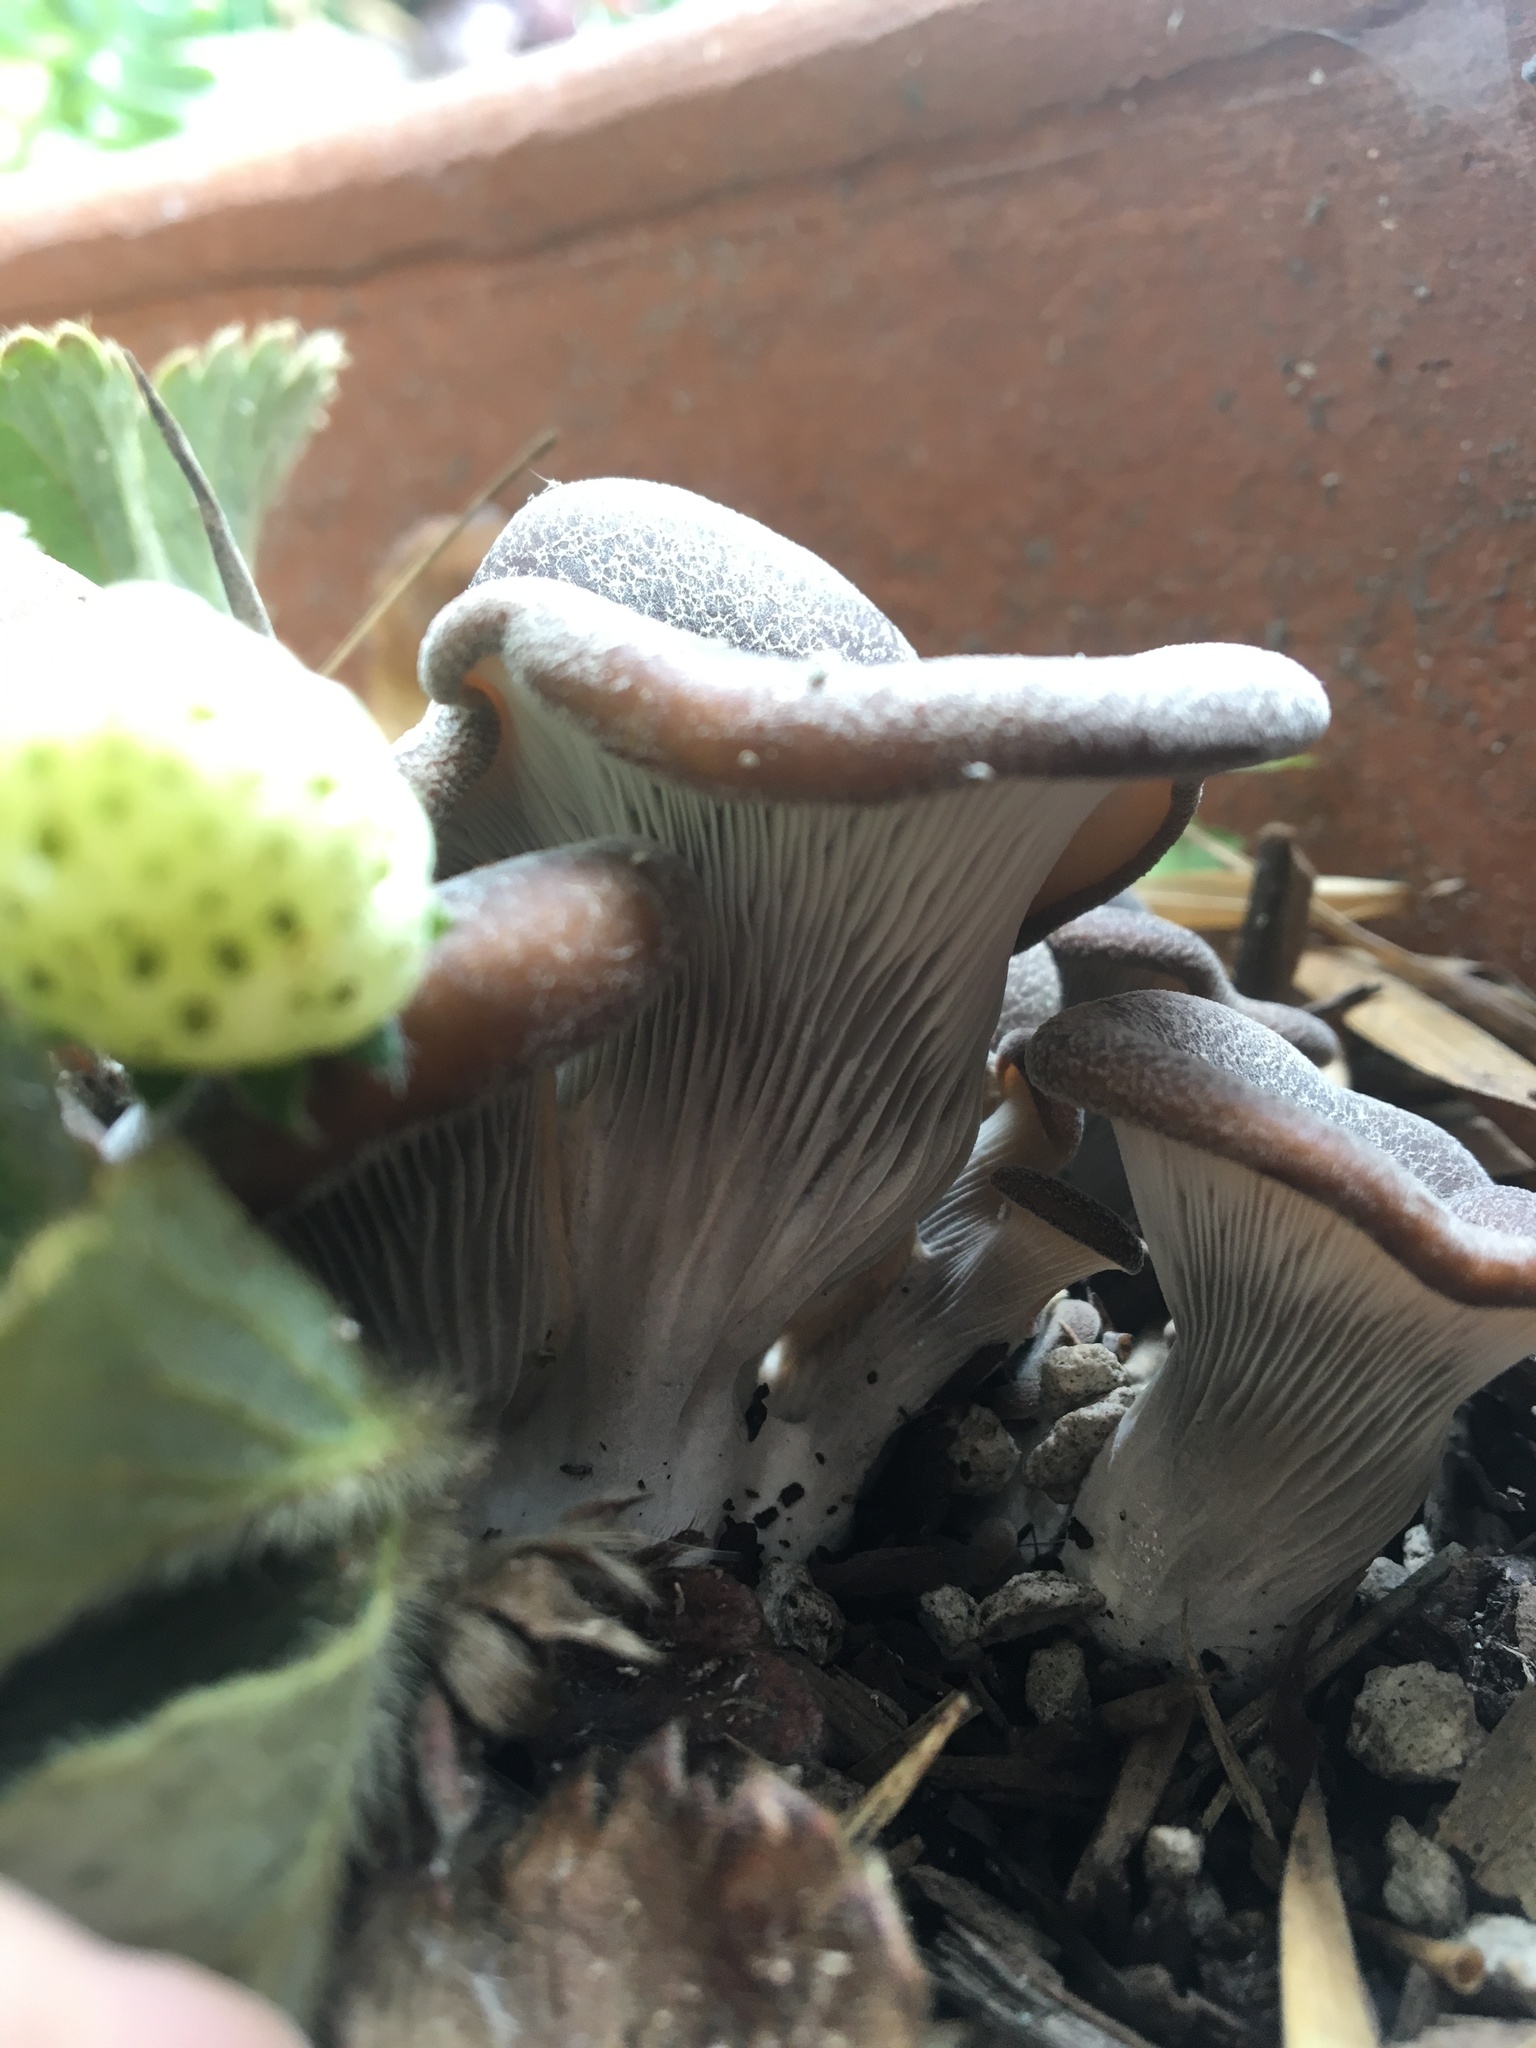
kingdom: Fungi
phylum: Basidiomycota
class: Agaricomycetes
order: Agaricales
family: Pleurotaceae
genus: Hohenbuehelia
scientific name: Hohenbuehelia petaloides
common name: Shoehorn oyster
